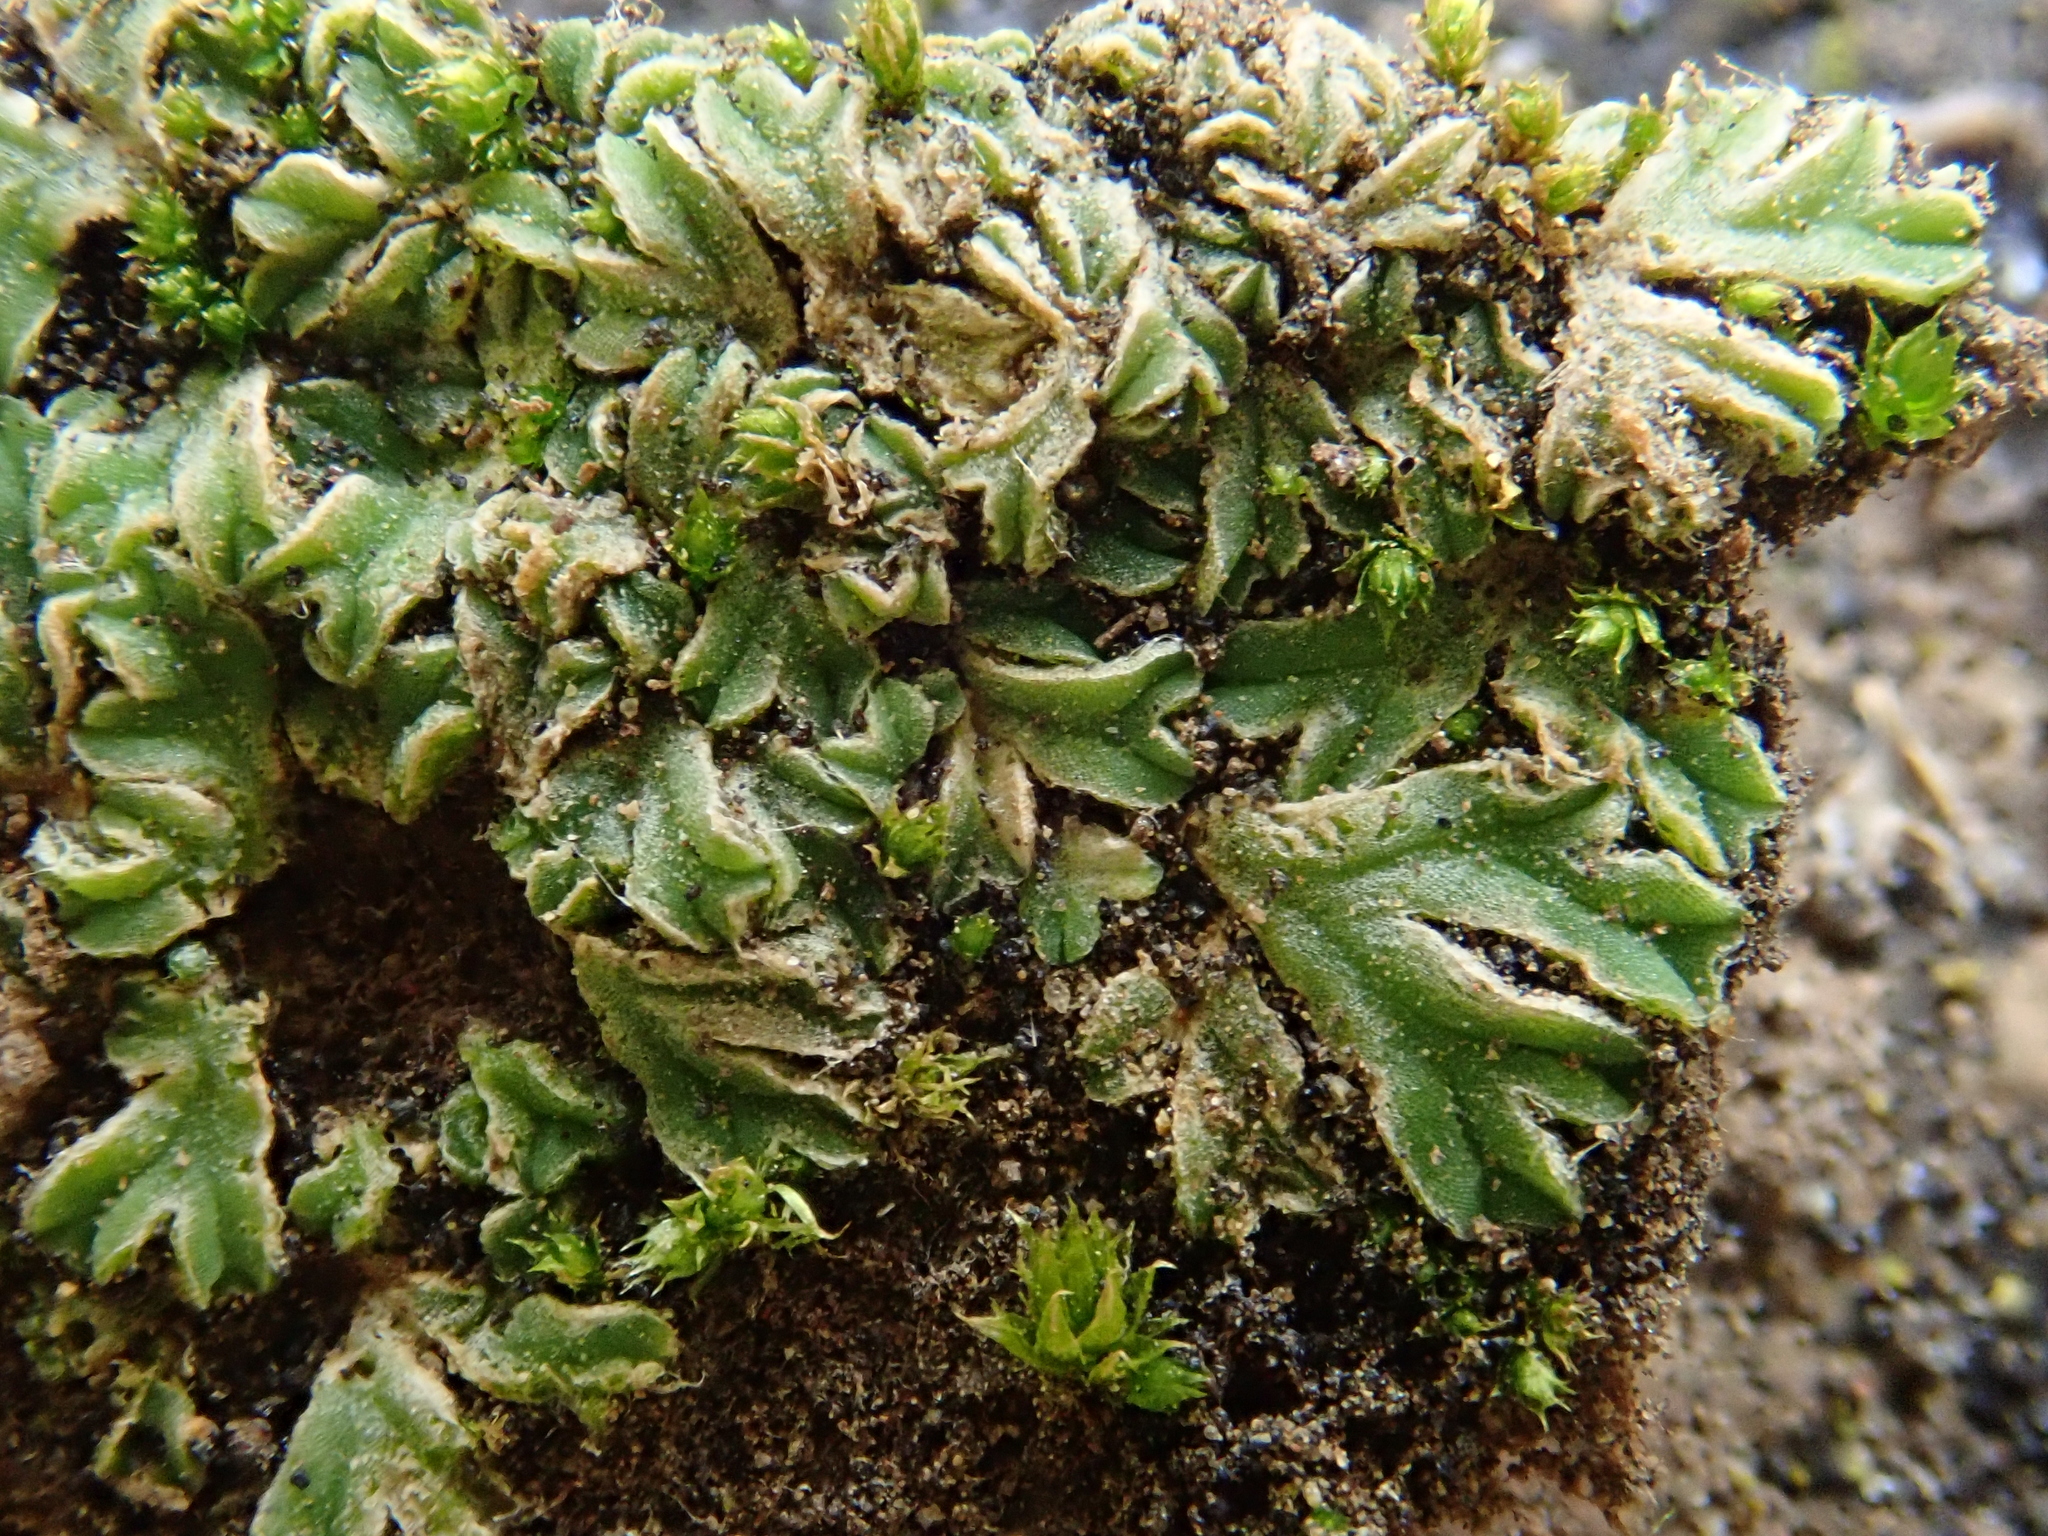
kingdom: Plantae
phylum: Marchantiophyta
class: Marchantiopsida
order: Marchantiales
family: Ricciaceae
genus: Riccia
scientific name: Riccia sorocarpa
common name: Common crystalwort
